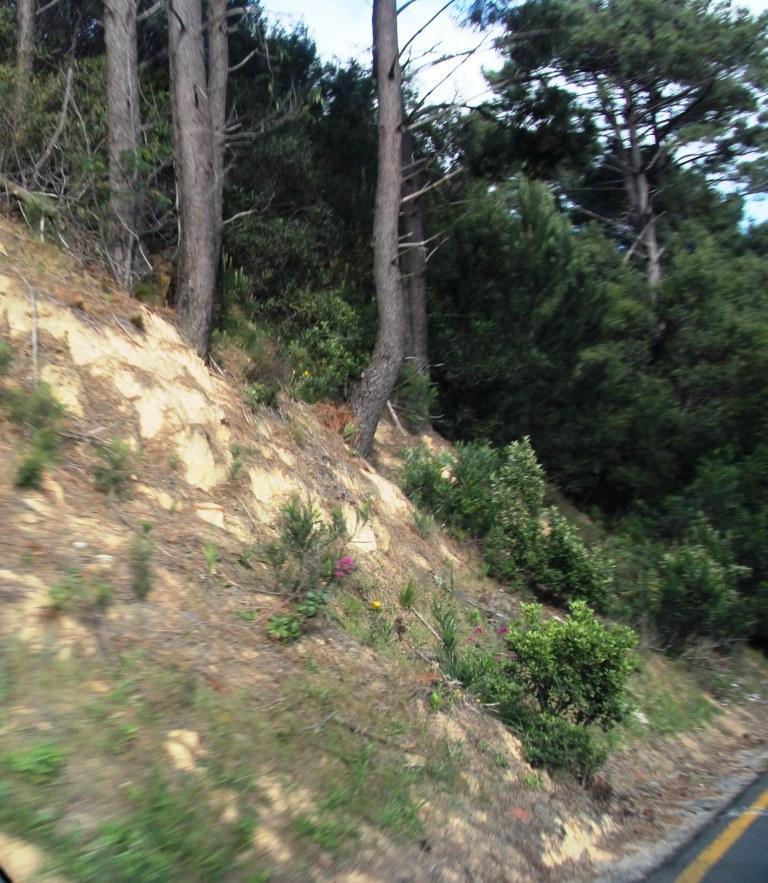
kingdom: Plantae
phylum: Tracheophyta
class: Magnoliopsida
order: Dipsacales
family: Caprifoliaceae
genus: Centranthus
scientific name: Centranthus ruber
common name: Red valerian
